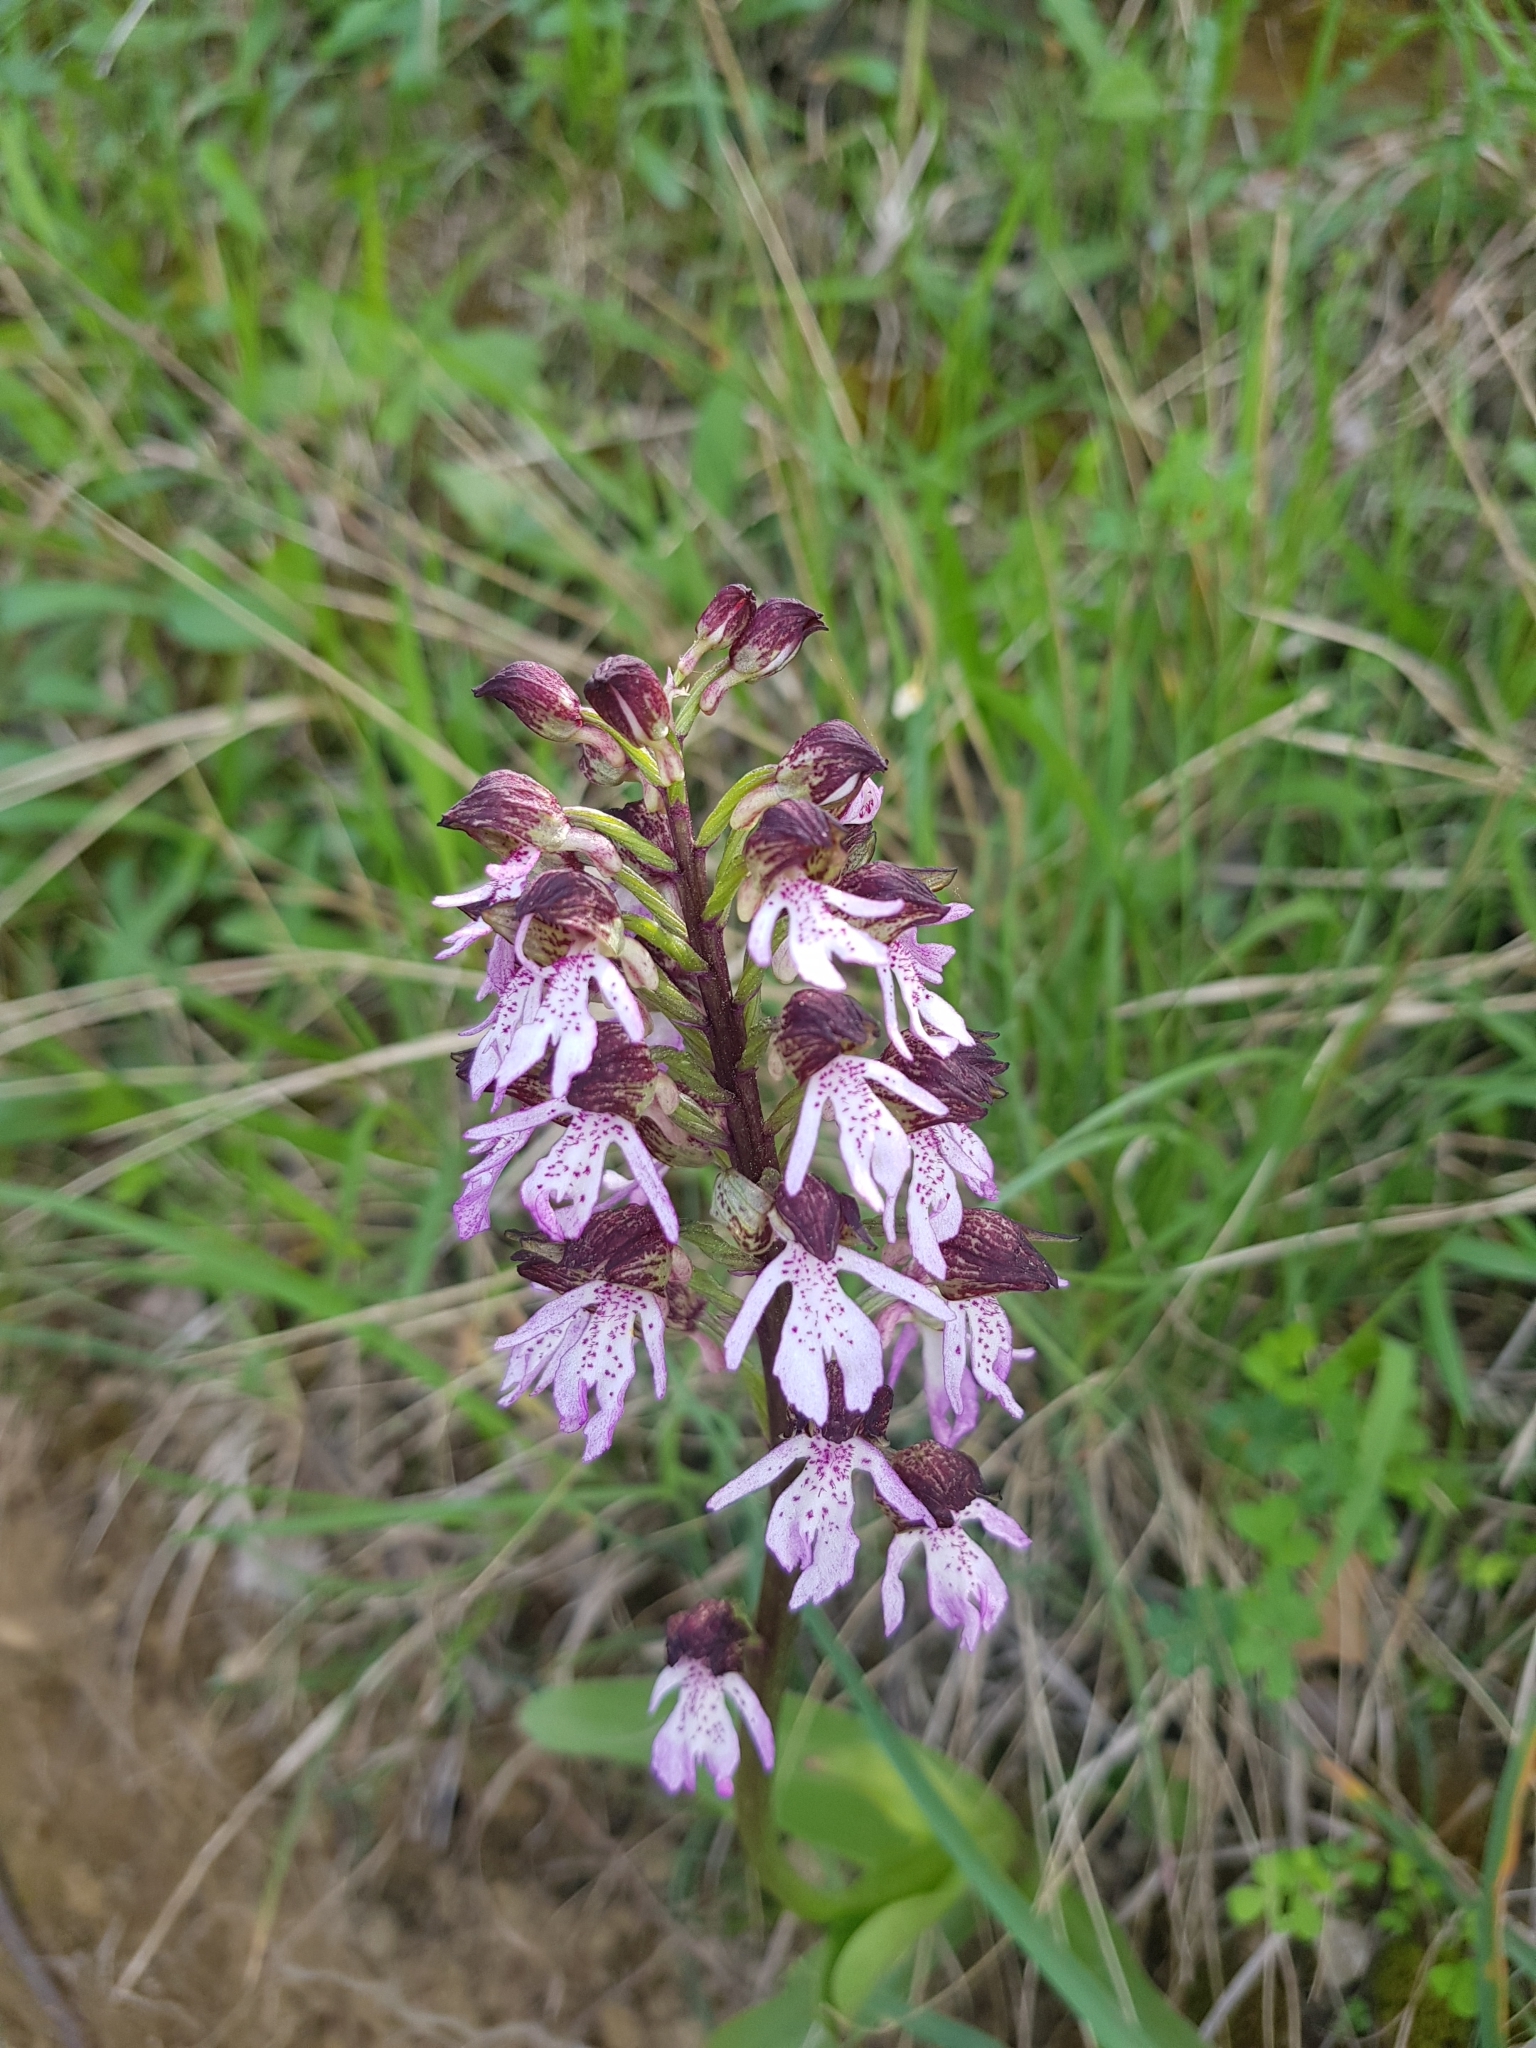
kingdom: Plantae
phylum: Tracheophyta
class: Liliopsida
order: Asparagales
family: Orchidaceae
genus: Orchis
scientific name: Orchis purpurea
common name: Lady orchid
